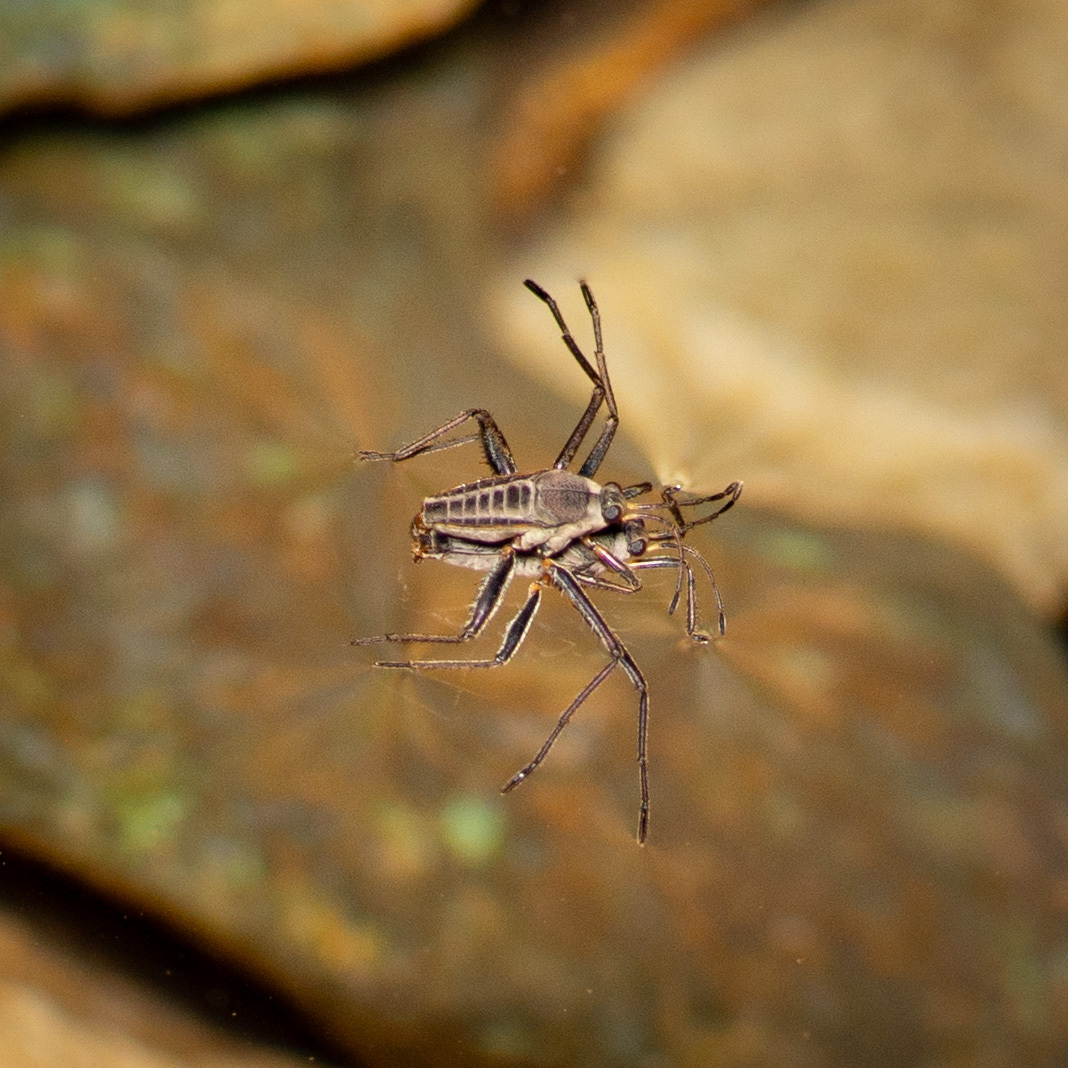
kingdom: Animalia
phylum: Arthropoda
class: Insecta
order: Hemiptera
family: Veliidae
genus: Rhagovelia
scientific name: Rhagovelia
